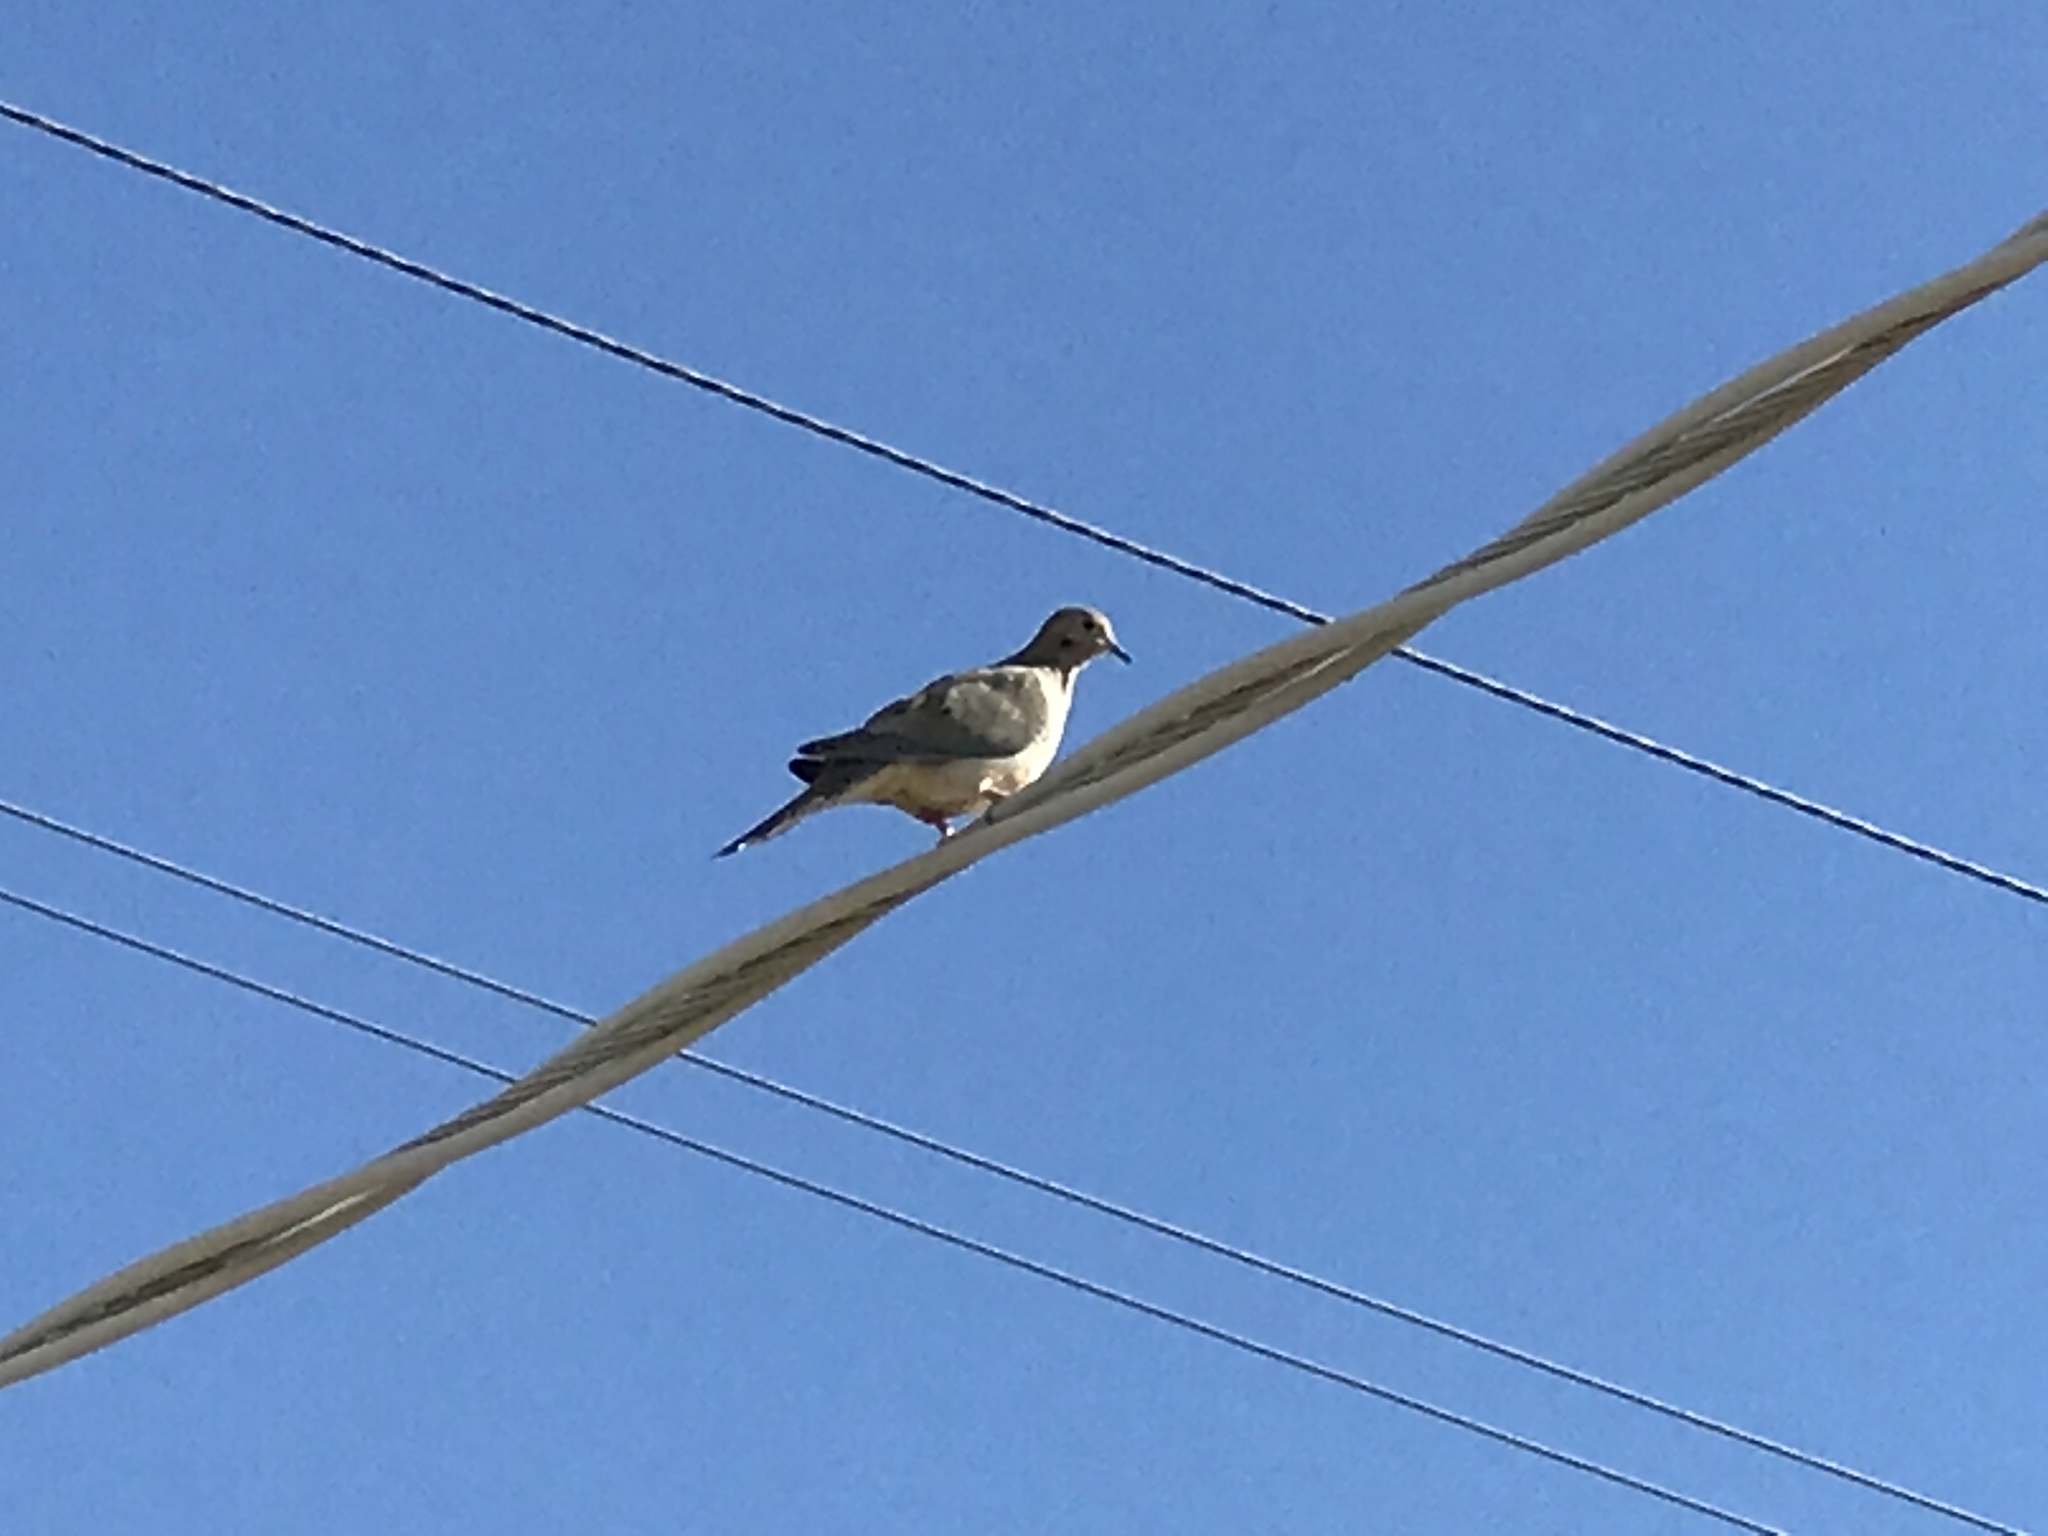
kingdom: Animalia
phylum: Chordata
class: Aves
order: Columbiformes
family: Columbidae
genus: Zenaida
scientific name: Zenaida macroura
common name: Mourning dove
